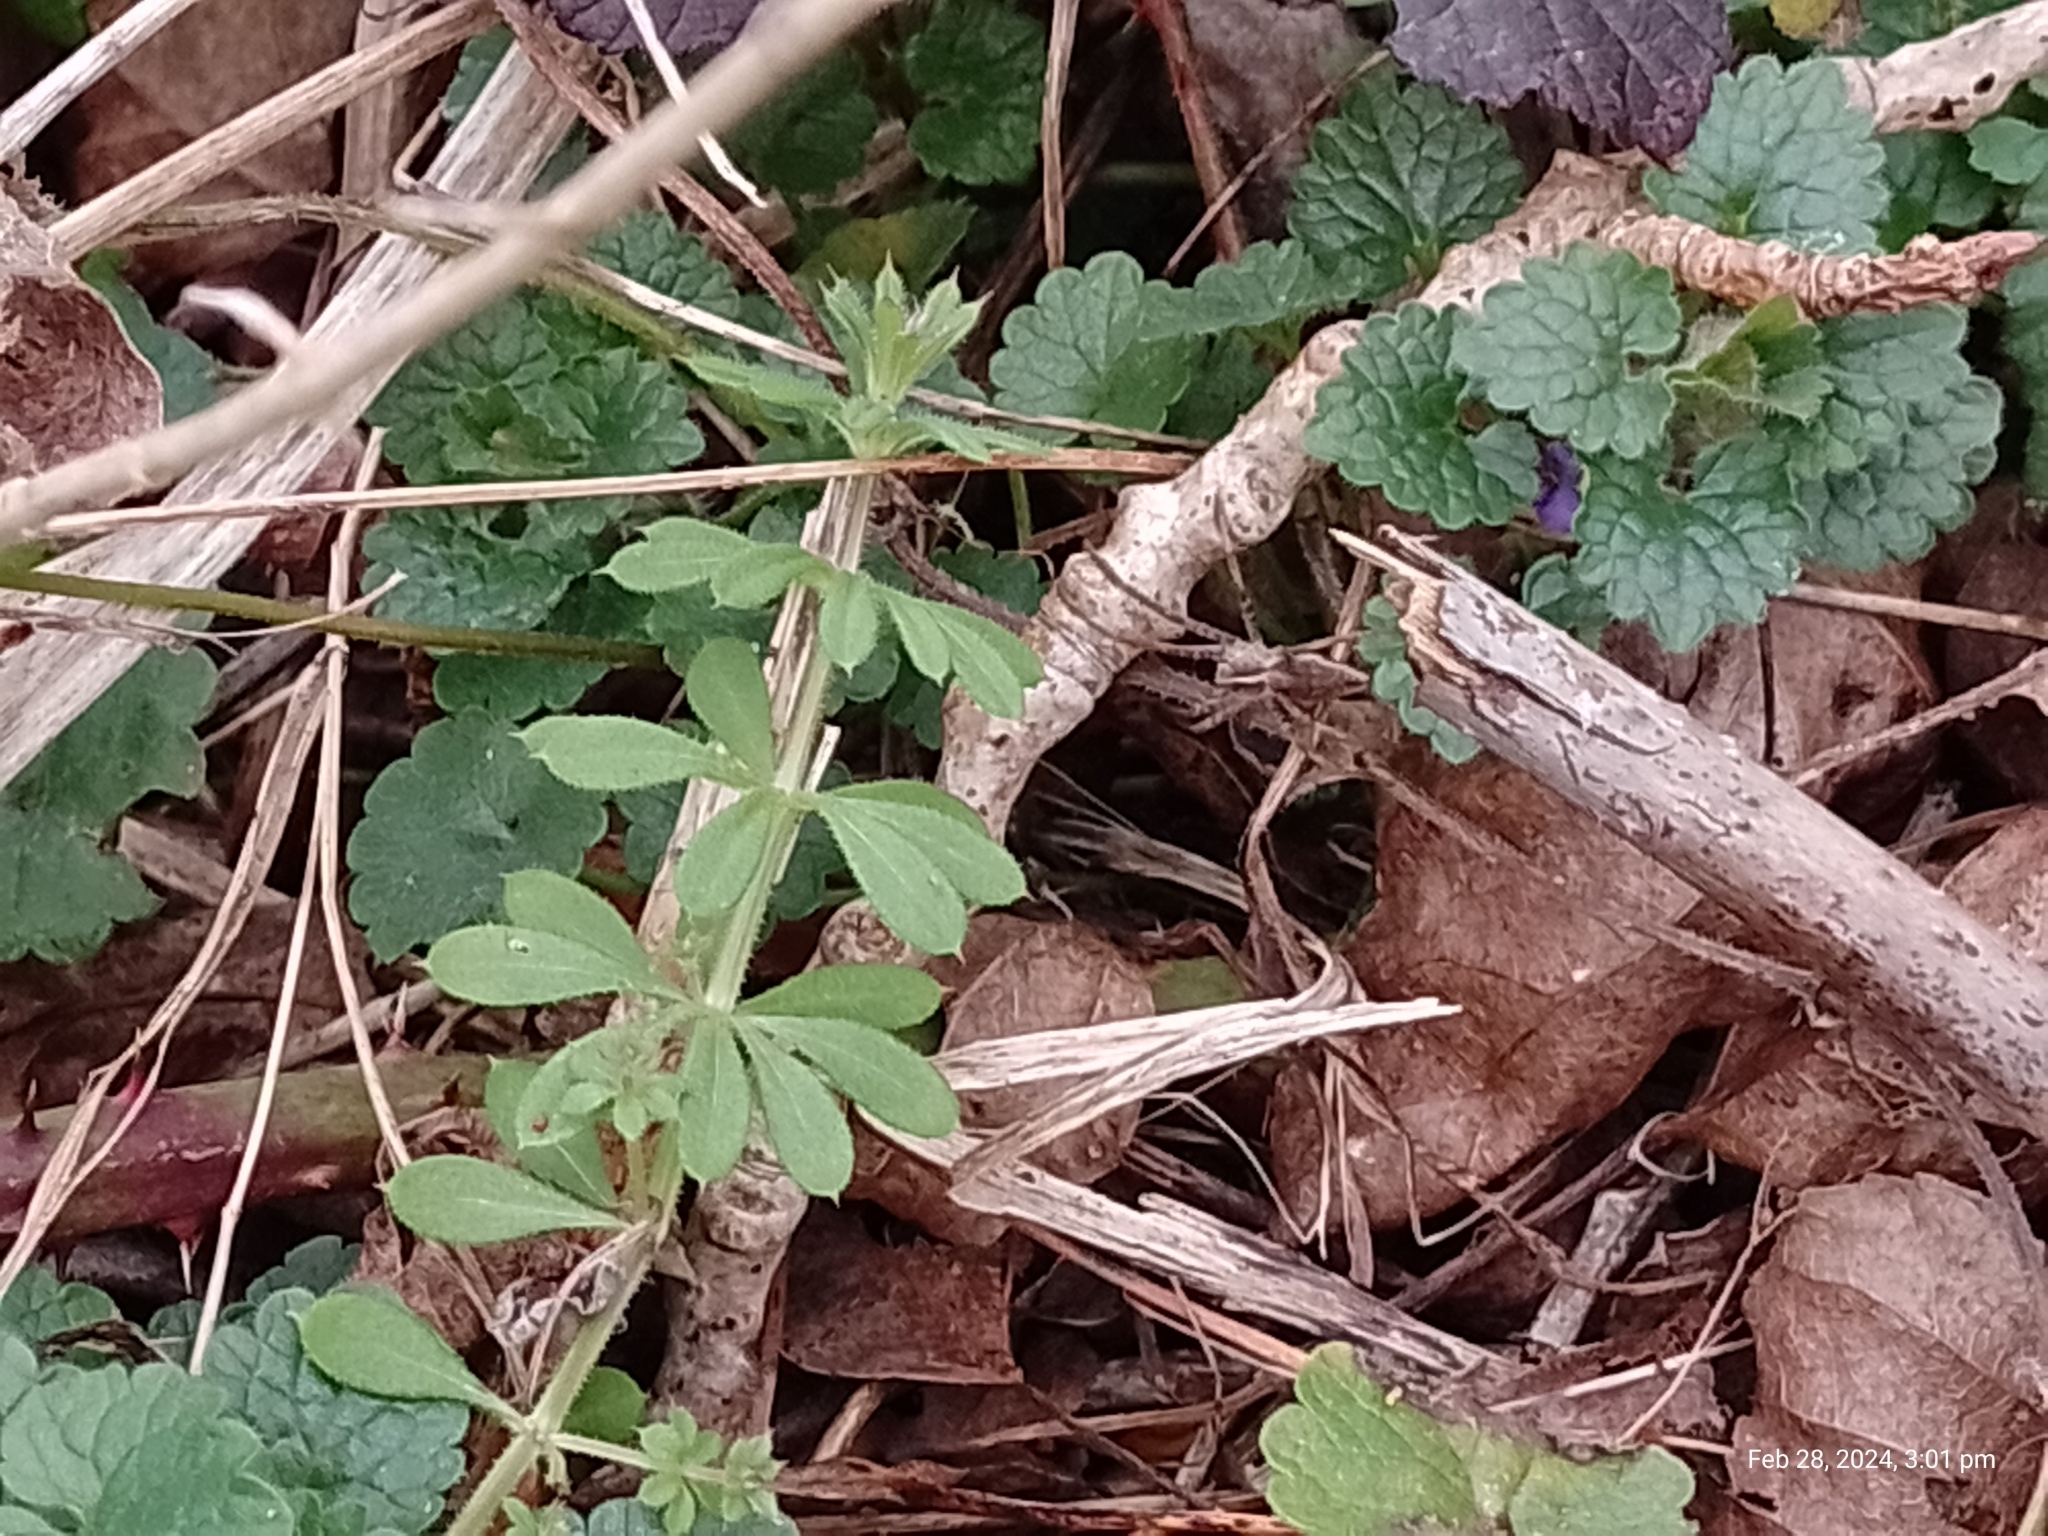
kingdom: Animalia
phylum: Arthropoda
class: Arachnida
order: Araneae
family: Pisauridae
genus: Pisaura
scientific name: Pisaura mirabilis
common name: Tent spider
